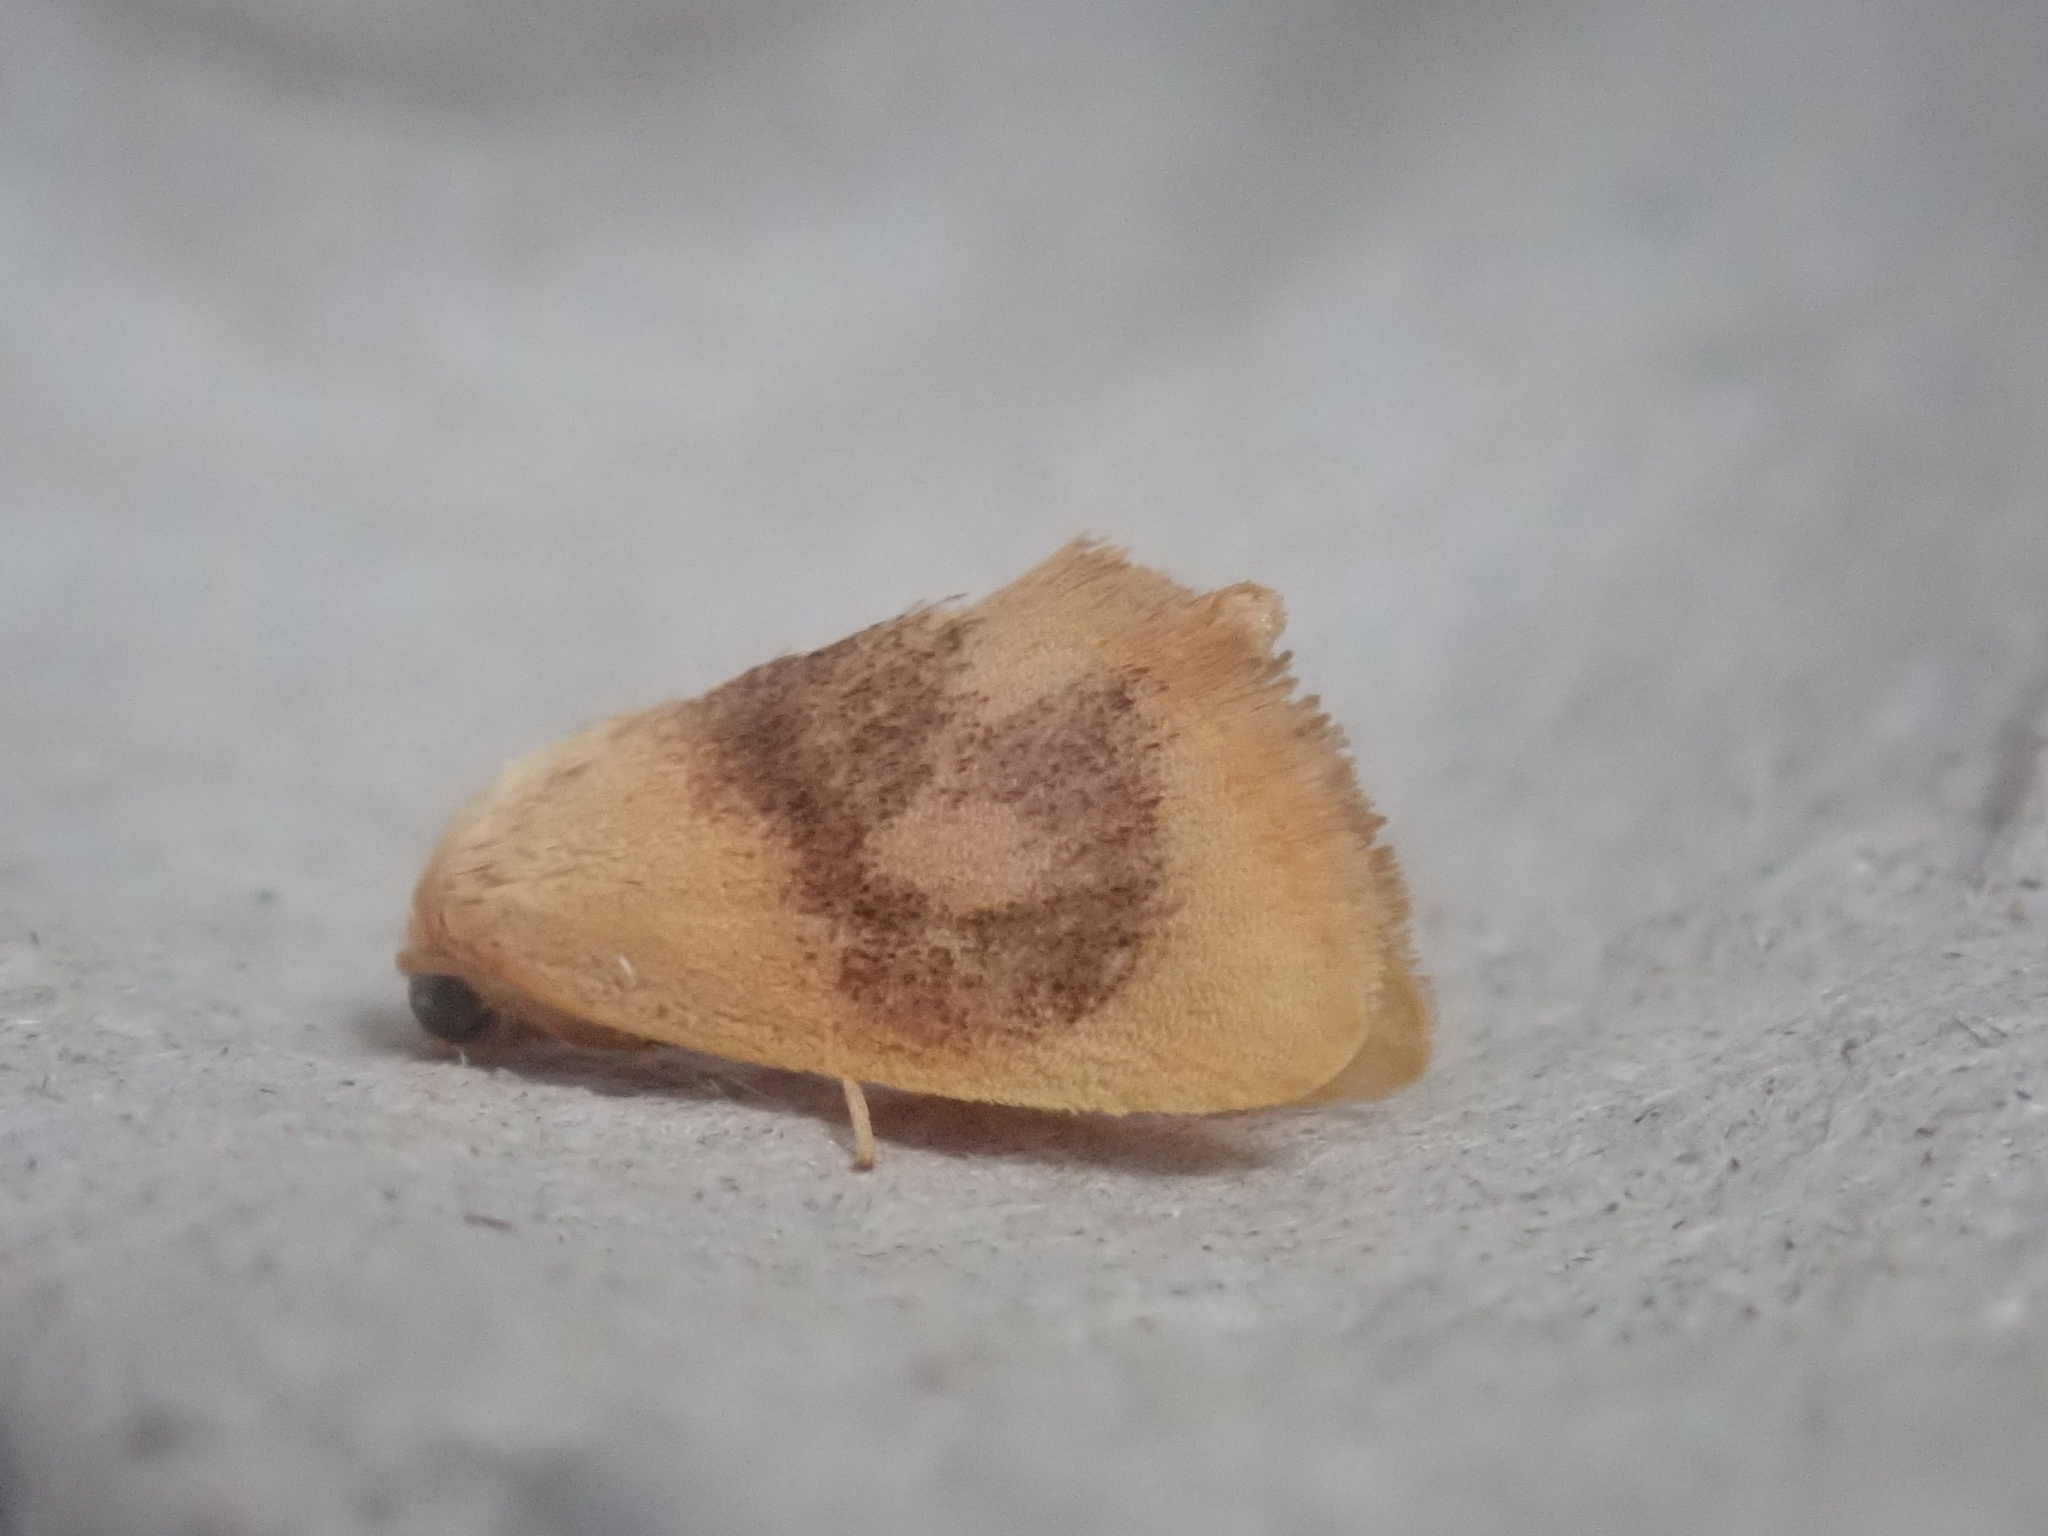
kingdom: Animalia
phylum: Arthropoda
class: Insecta
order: Lepidoptera
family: Limacodidae
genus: Tortricidia
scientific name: Tortricidia flexuosa
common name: Abbreviated button slug moth
